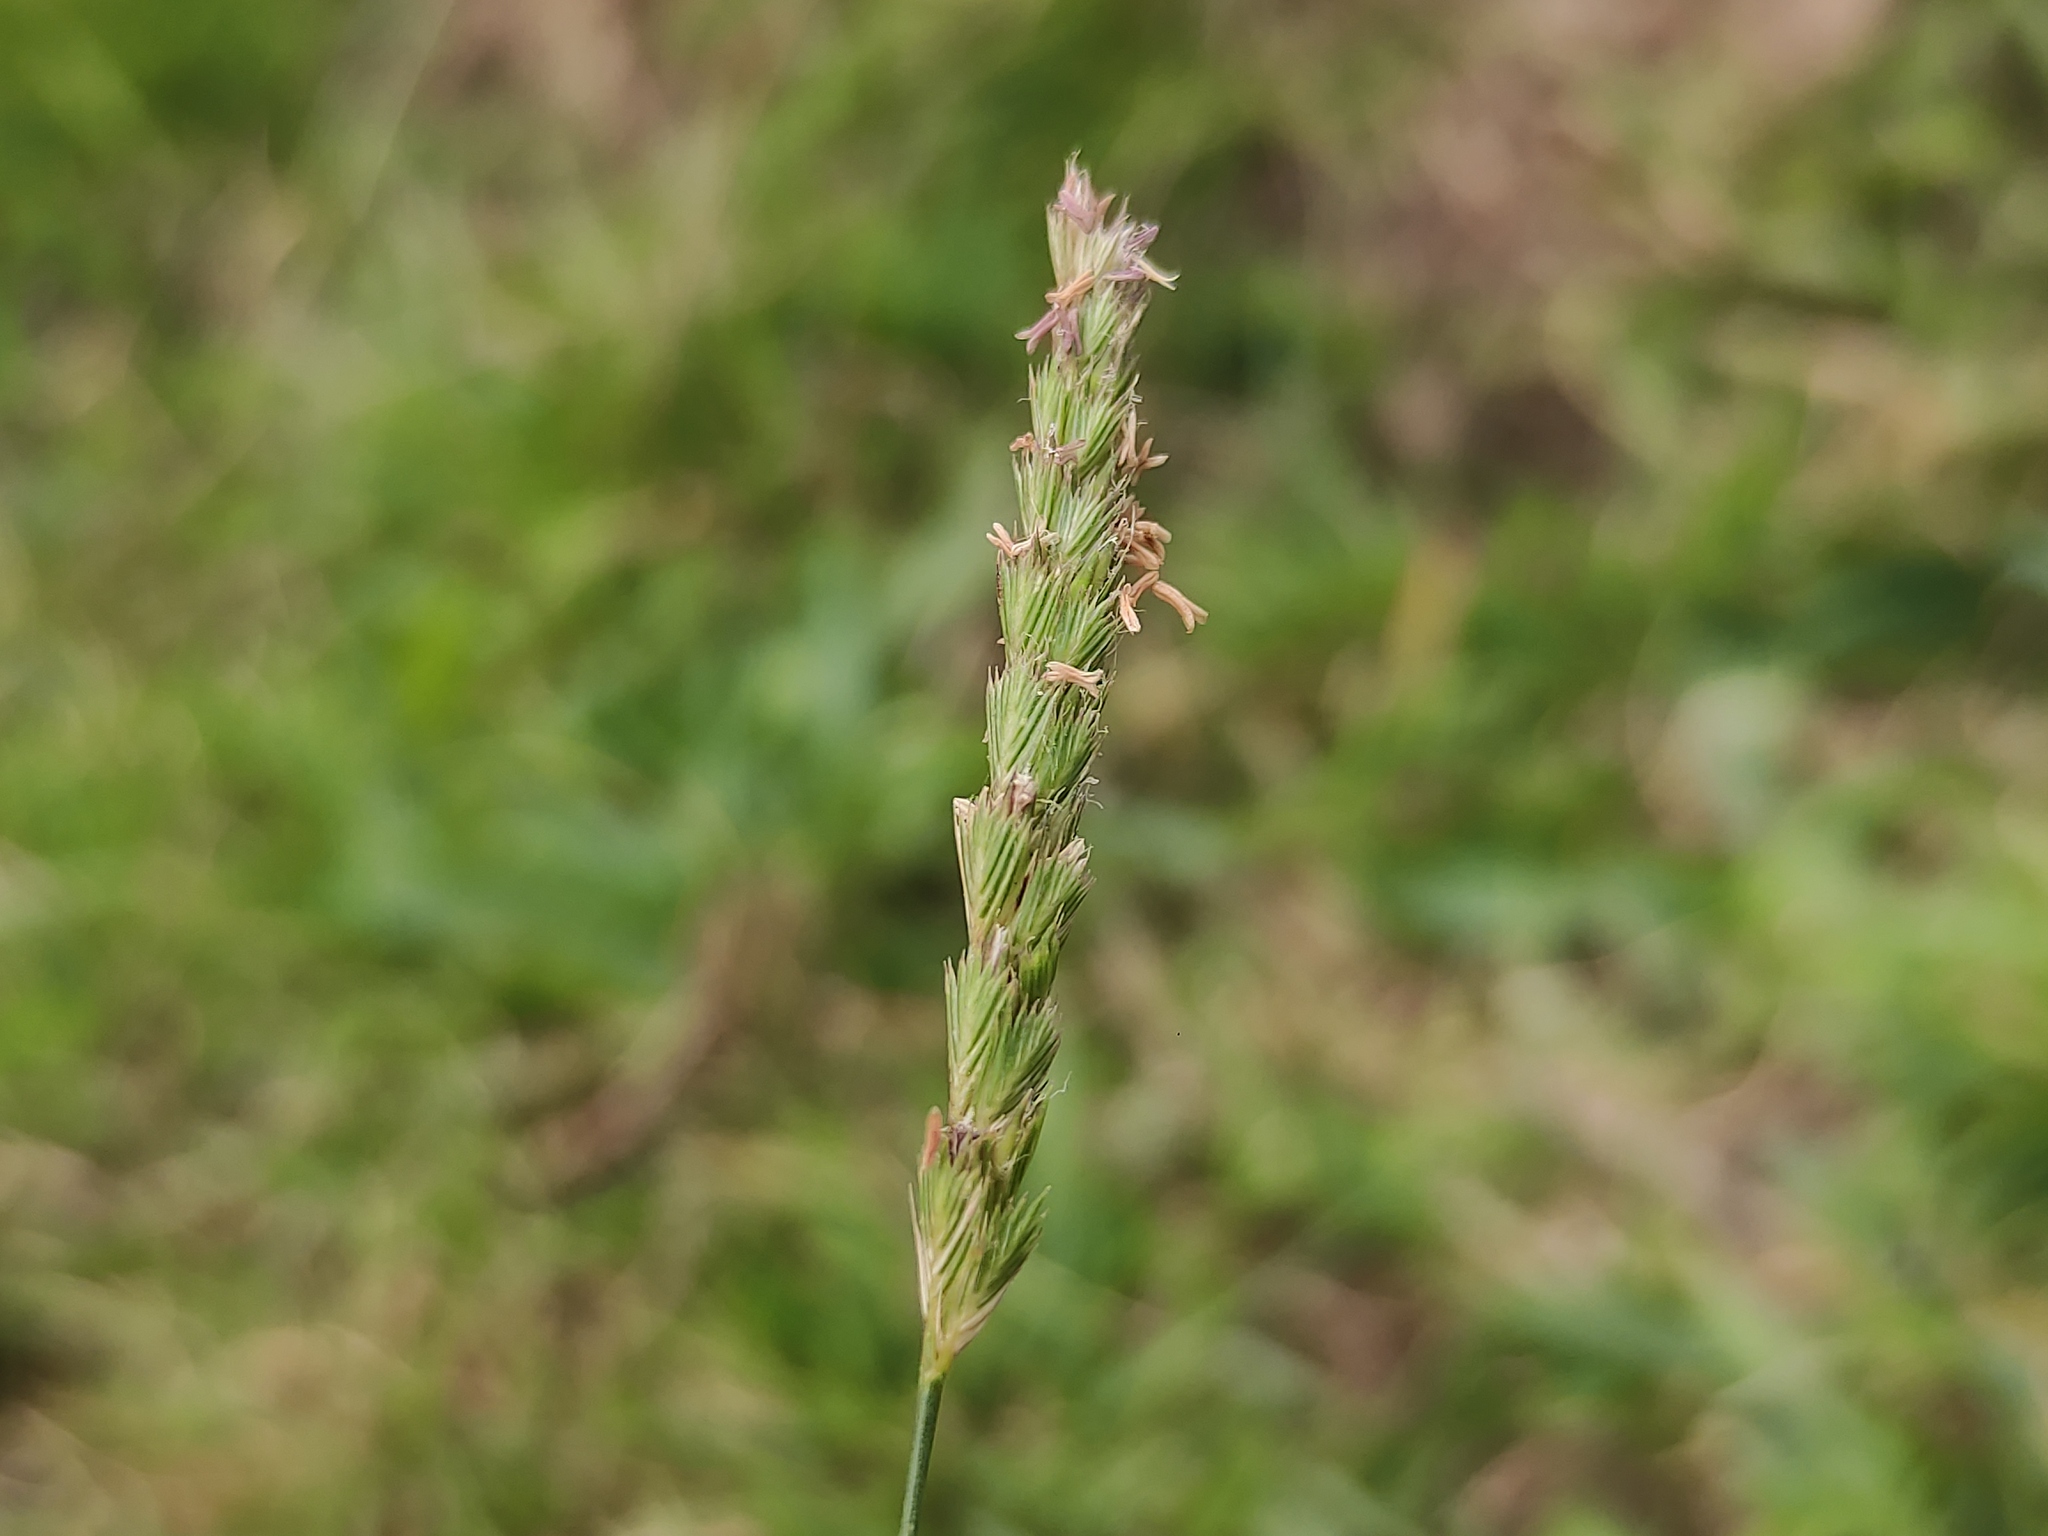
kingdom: Plantae
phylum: Tracheophyta
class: Liliopsida
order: Poales
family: Poaceae
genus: Cynosurus
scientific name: Cynosurus cristatus
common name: Crested dog's-tail
